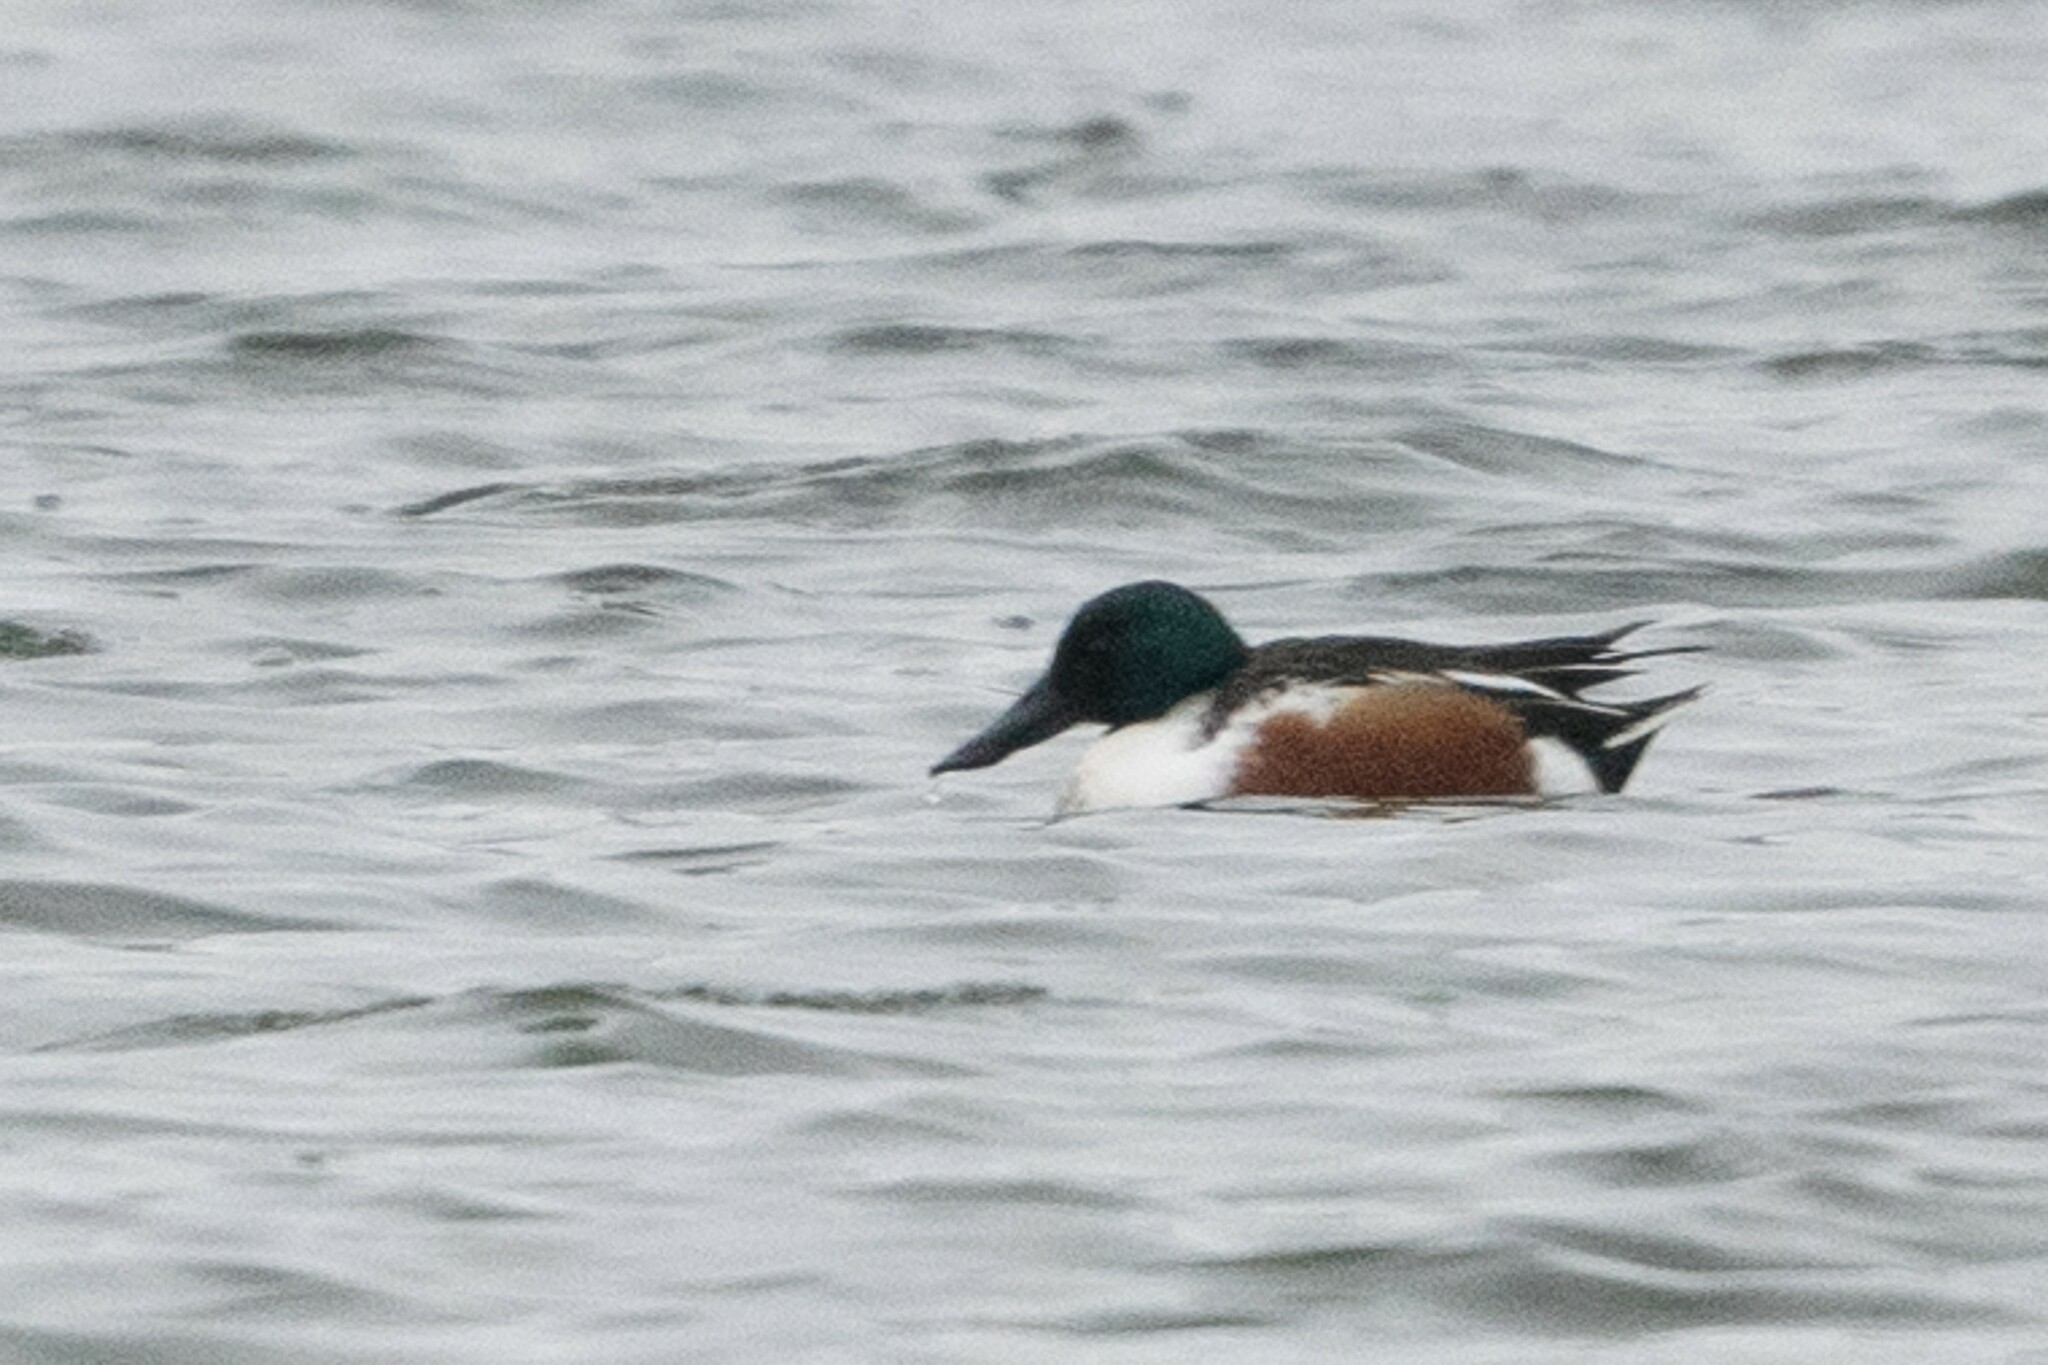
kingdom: Animalia
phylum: Chordata
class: Aves
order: Anseriformes
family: Anatidae
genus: Spatula
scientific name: Spatula clypeata
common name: Northern shoveler
